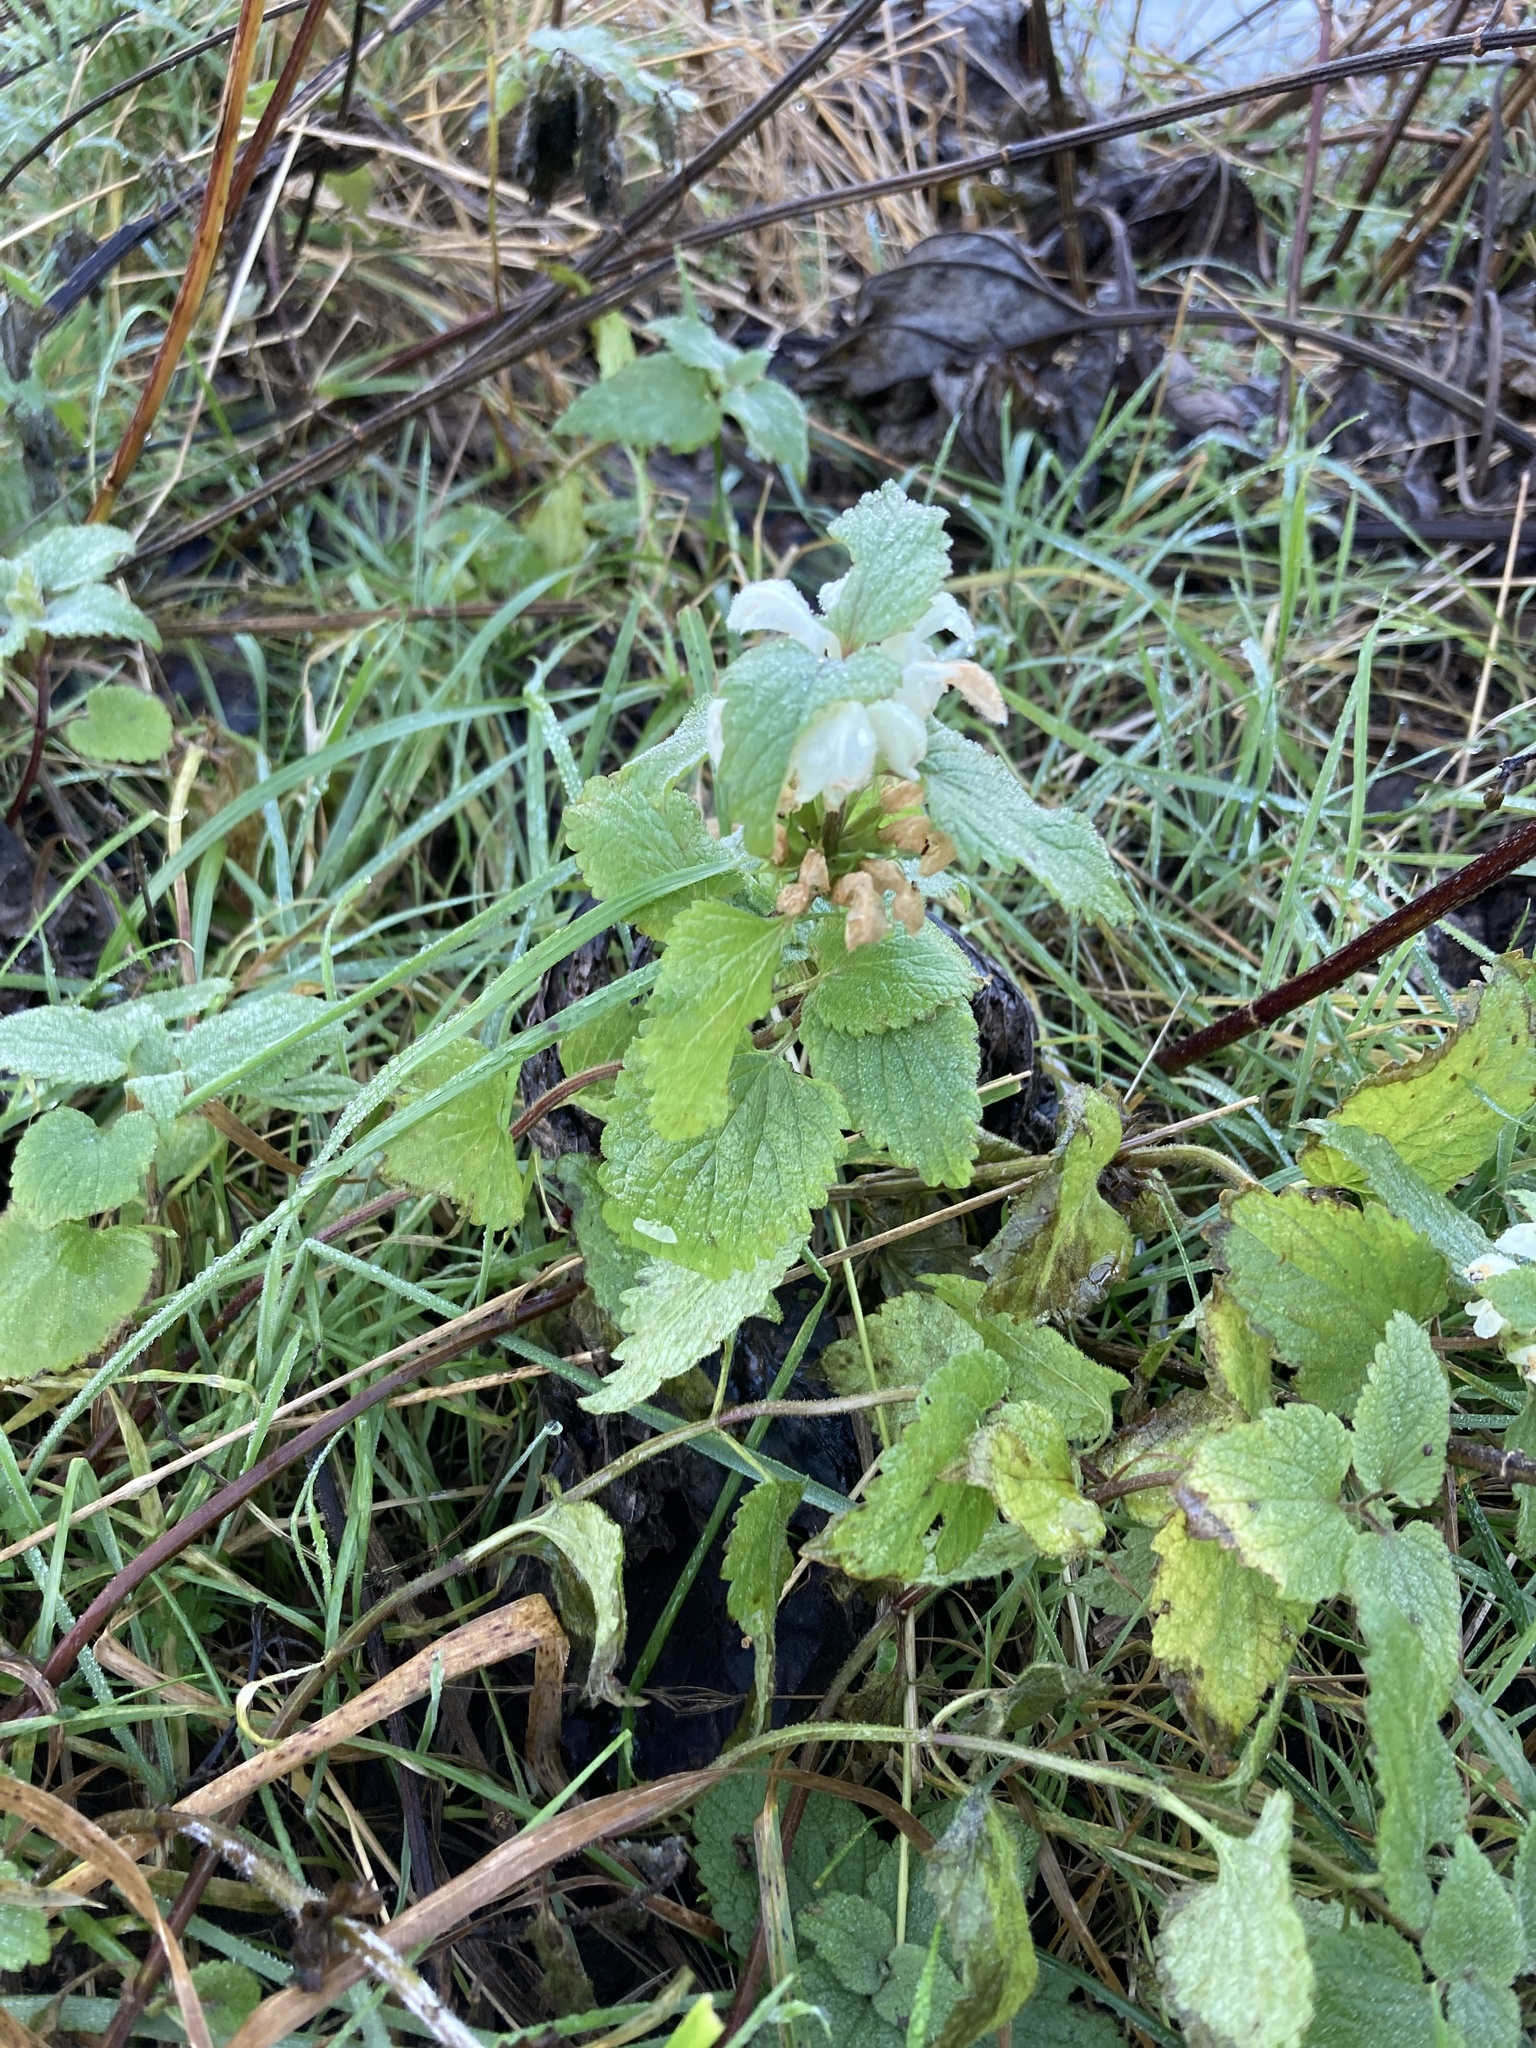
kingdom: Plantae
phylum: Tracheophyta
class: Magnoliopsida
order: Lamiales
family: Lamiaceae
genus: Lamium
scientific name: Lamium album
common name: White dead-nettle
